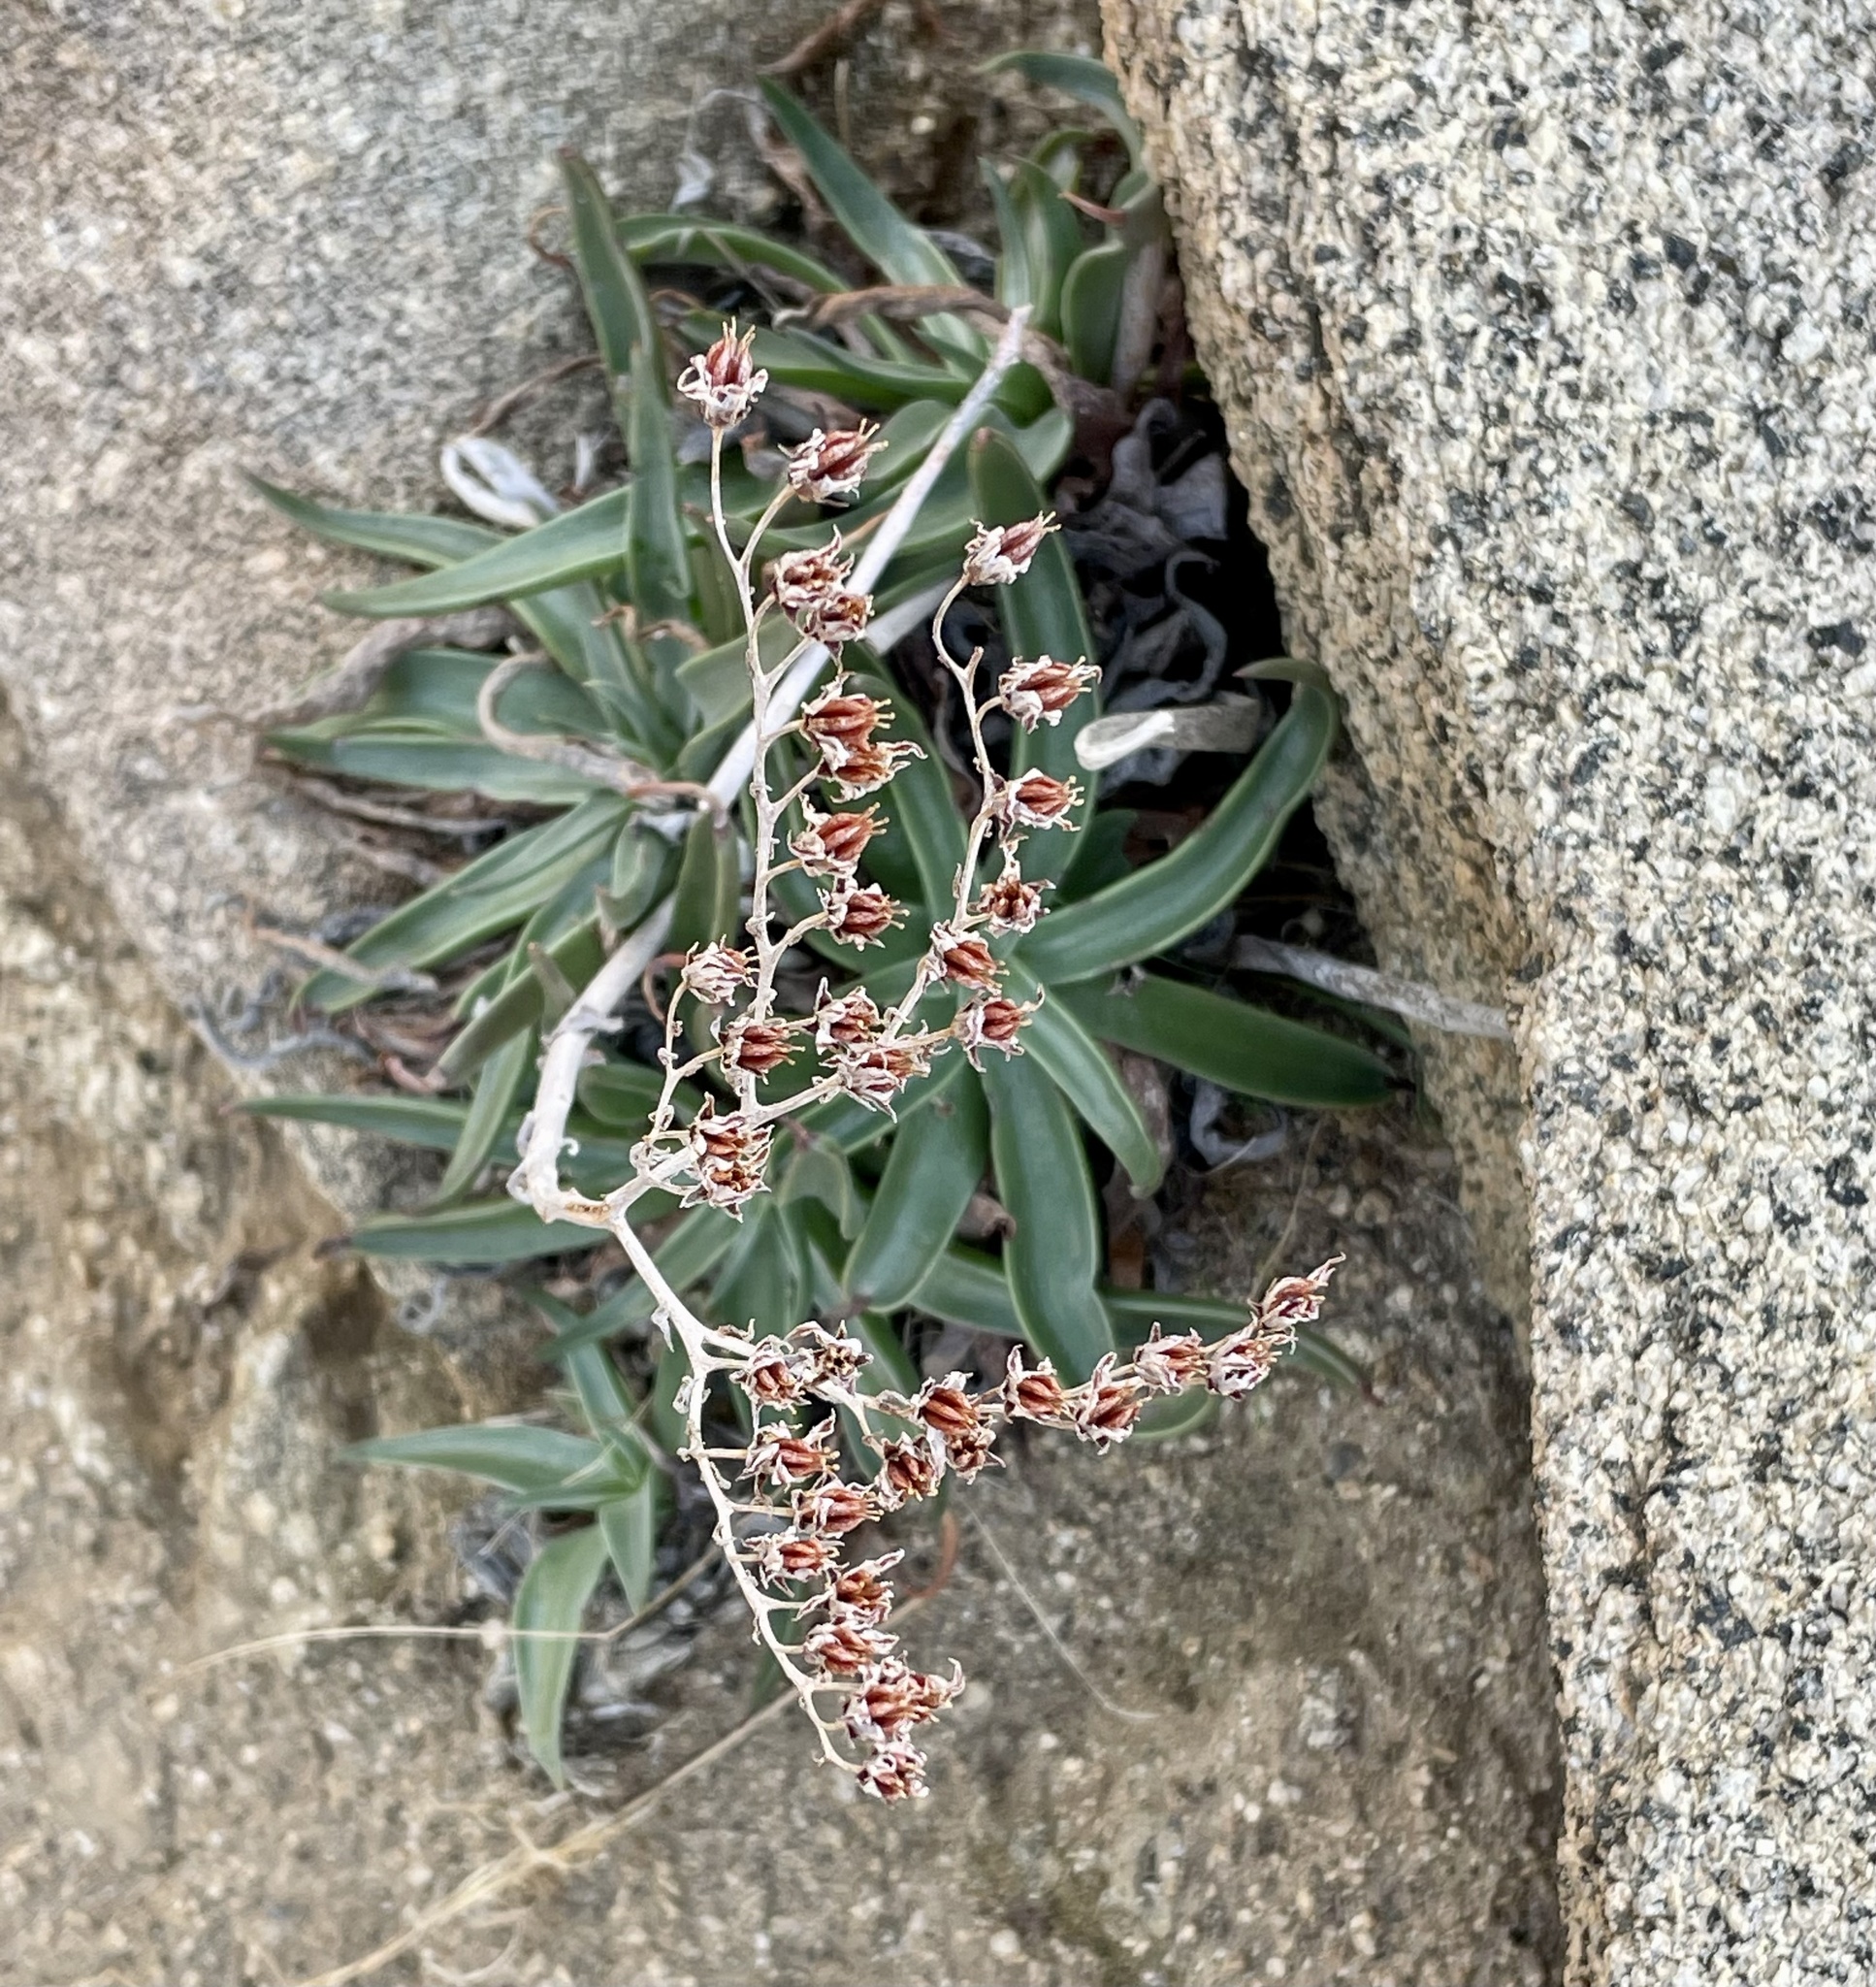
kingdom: Plantae
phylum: Tracheophyta
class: Magnoliopsida
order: Saxifragales
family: Crassulaceae
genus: Dudleya
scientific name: Dudleya saxosa
